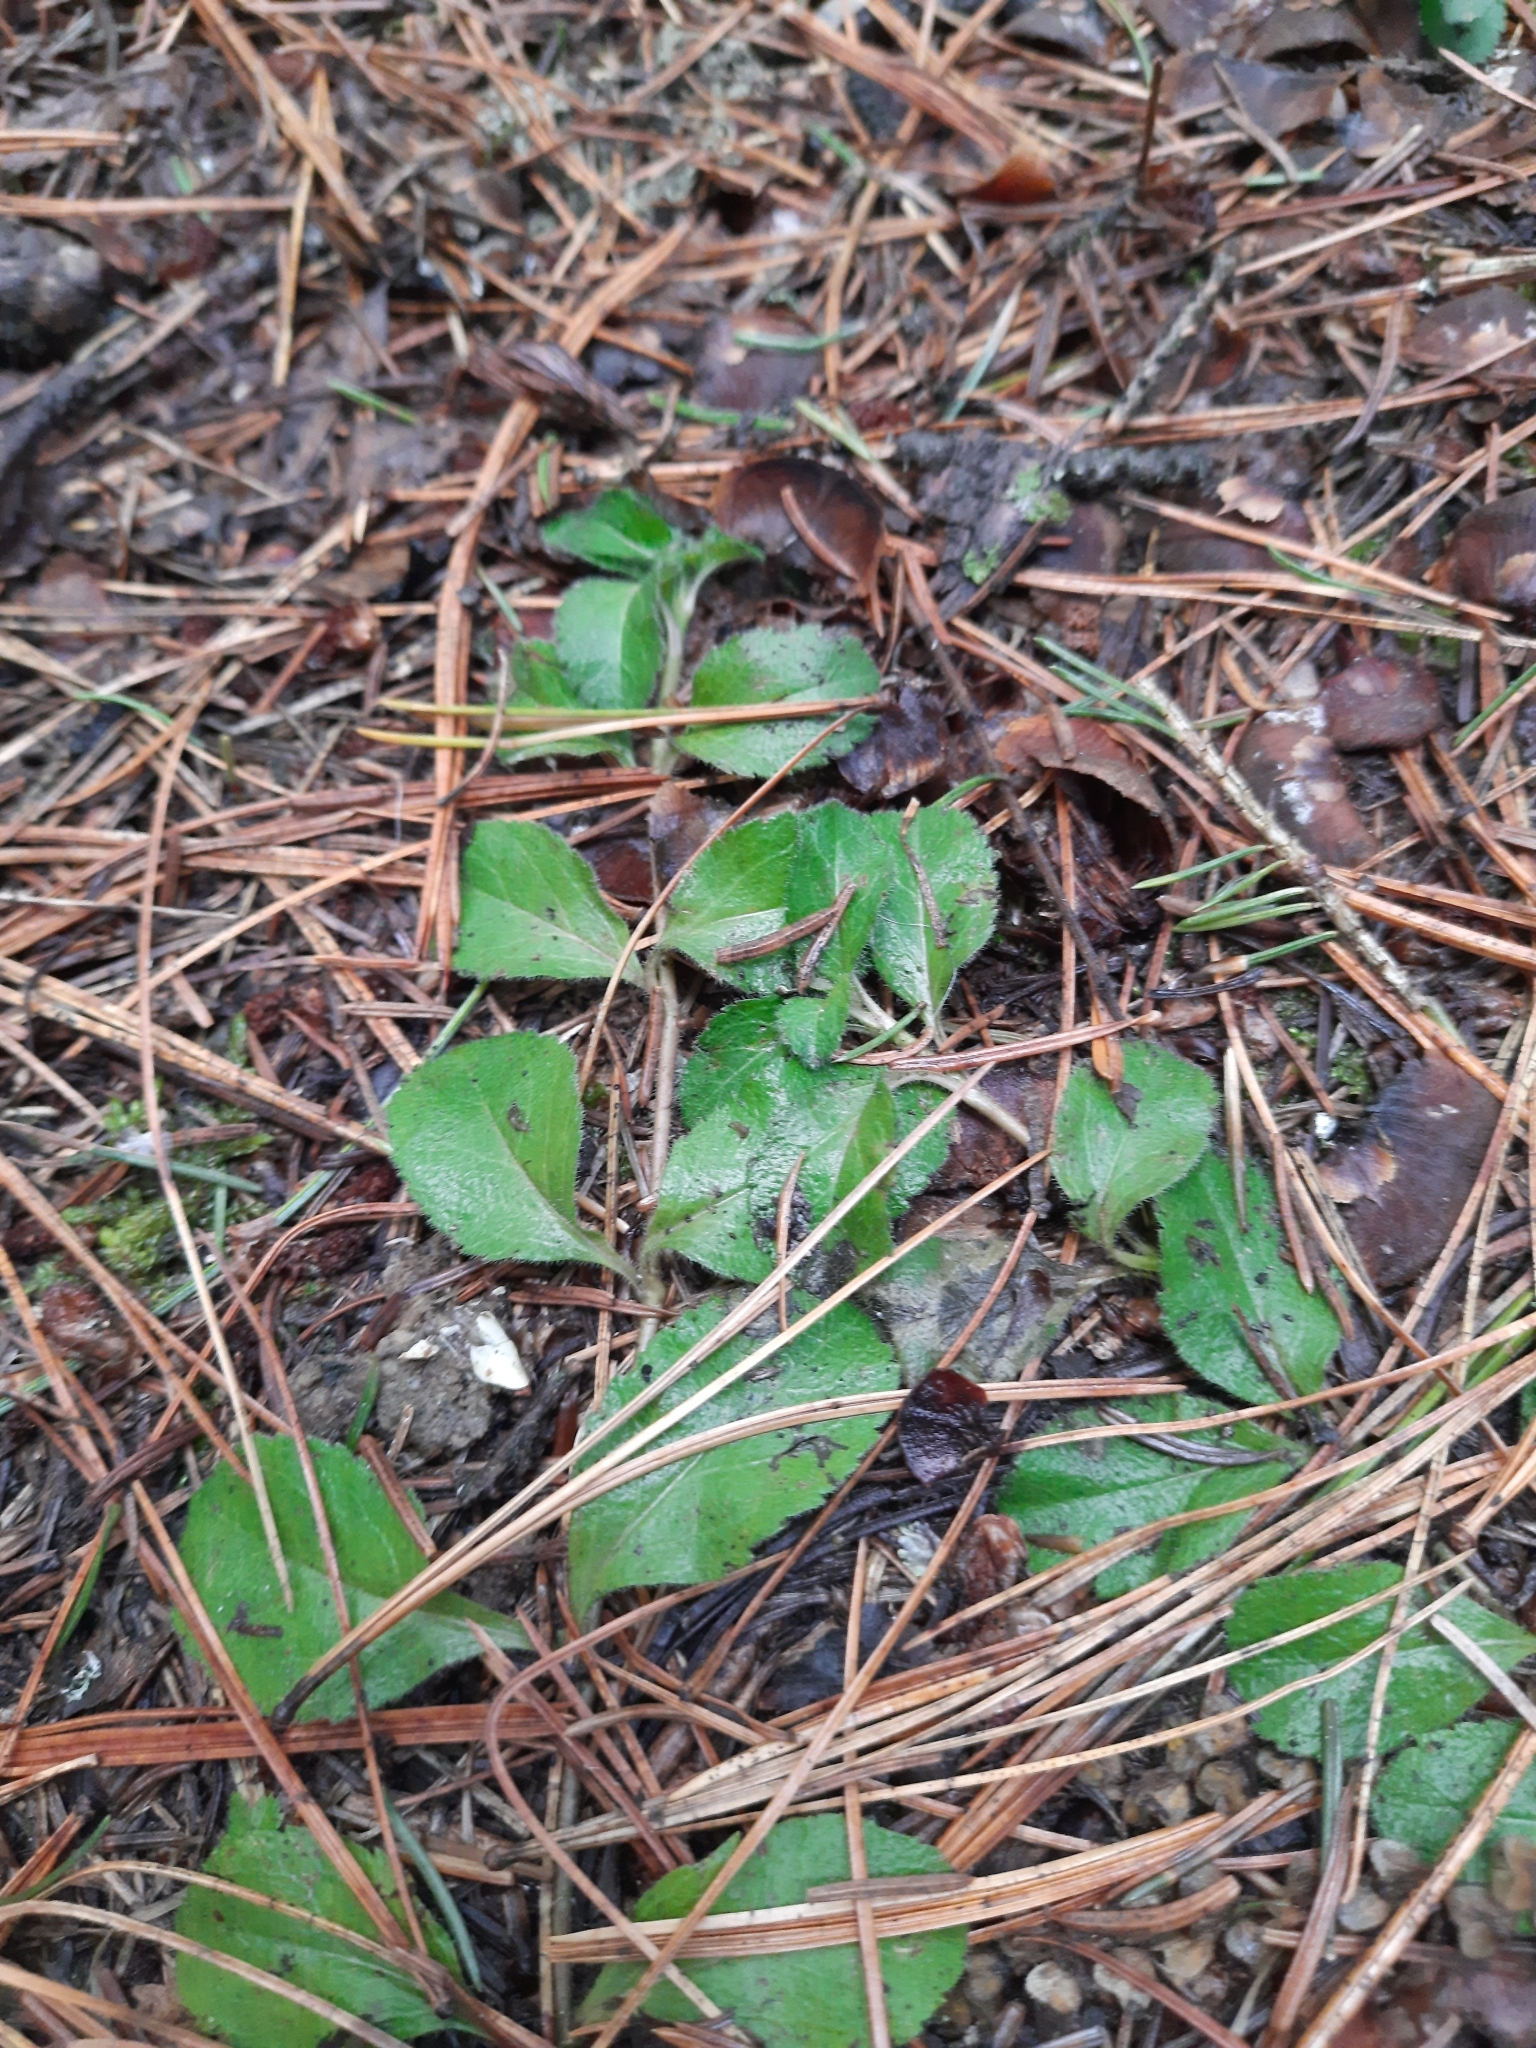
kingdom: Plantae
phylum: Tracheophyta
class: Magnoliopsida
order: Lamiales
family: Plantaginaceae
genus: Veronica
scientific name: Veronica officinalis
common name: Common speedwell
